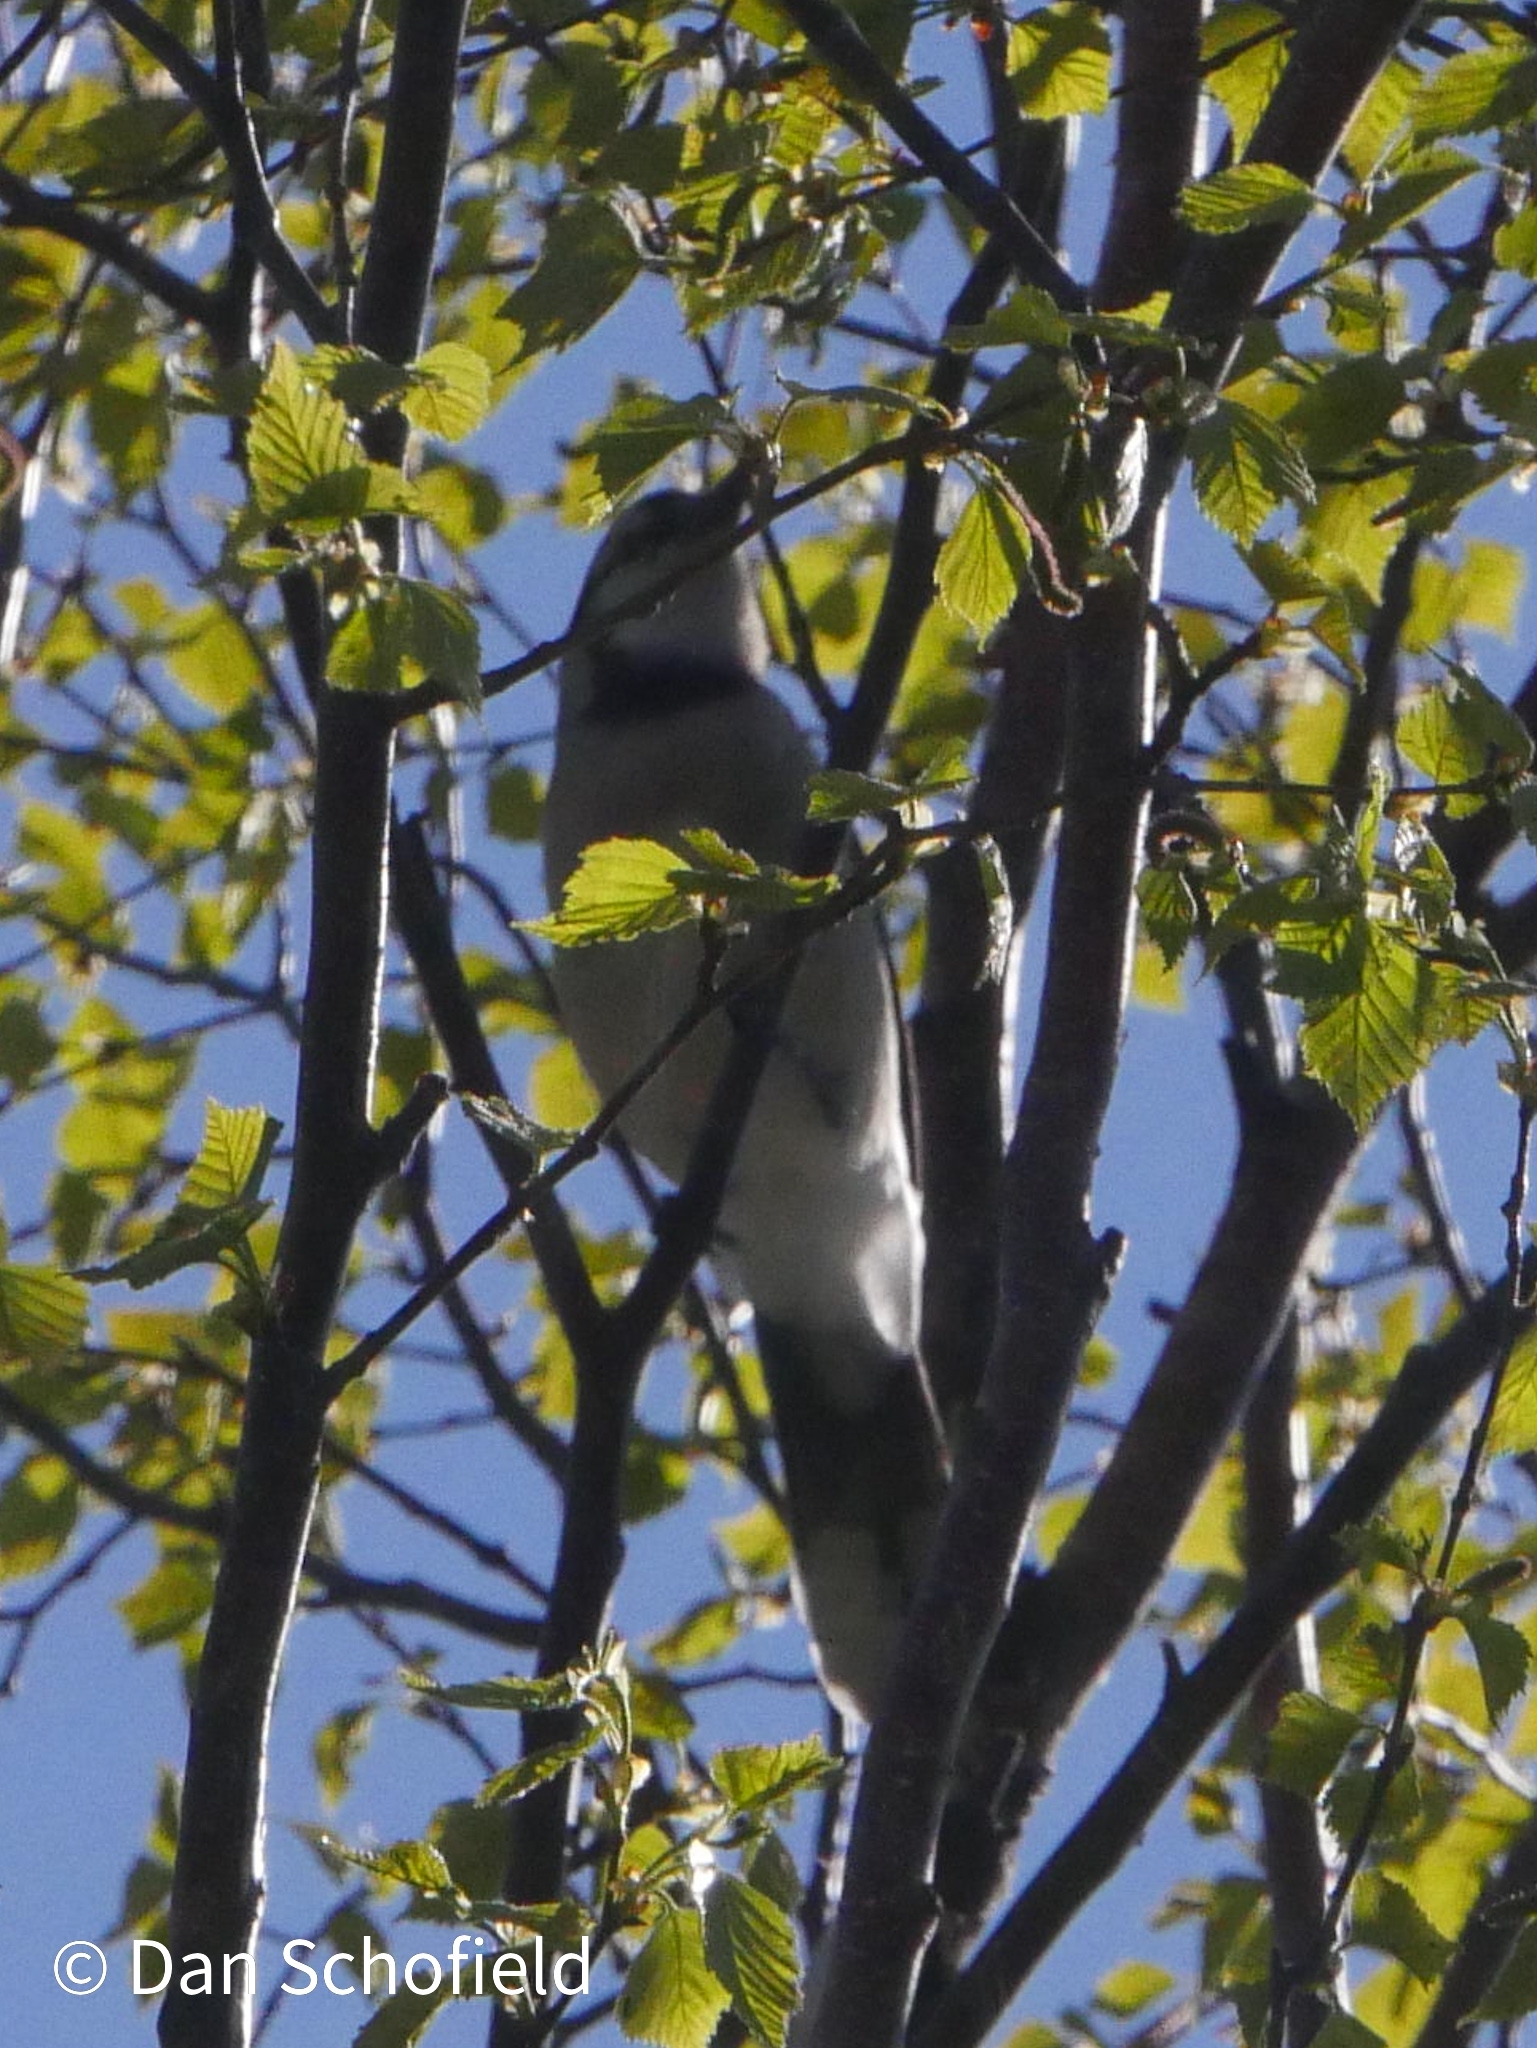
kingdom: Animalia
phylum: Chordata
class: Aves
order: Passeriformes
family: Corvidae
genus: Cyanocitta
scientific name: Cyanocitta cristata
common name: Blue jay
